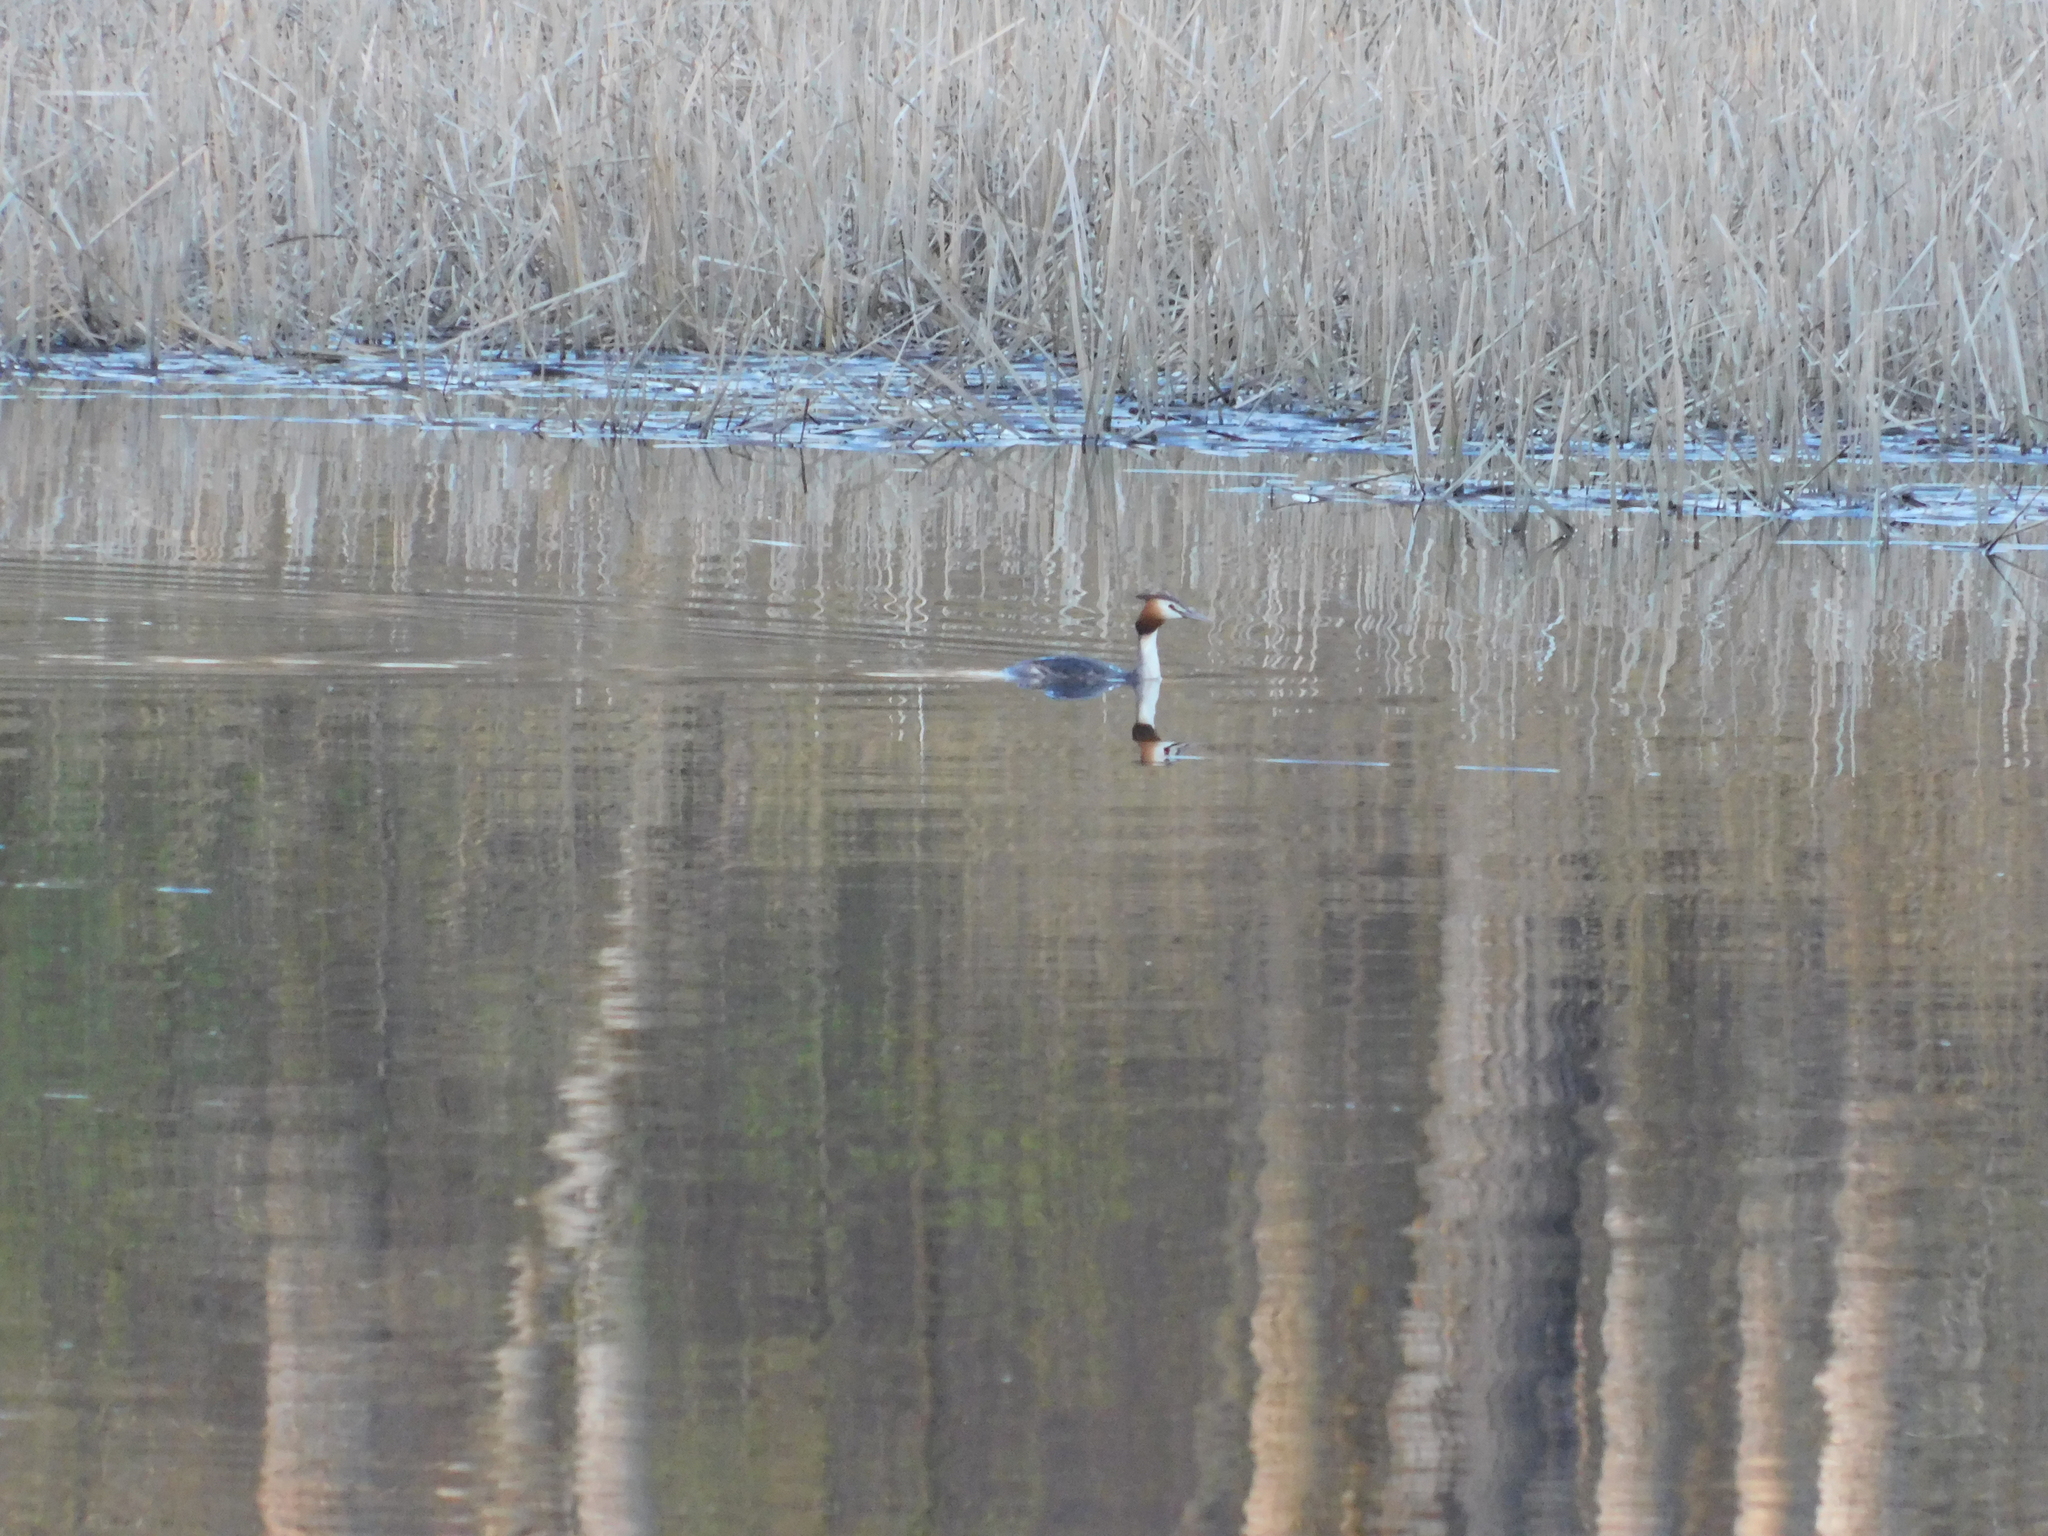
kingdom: Animalia
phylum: Chordata
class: Aves
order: Podicipediformes
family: Podicipedidae
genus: Podiceps
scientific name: Podiceps cristatus
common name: Great crested grebe
